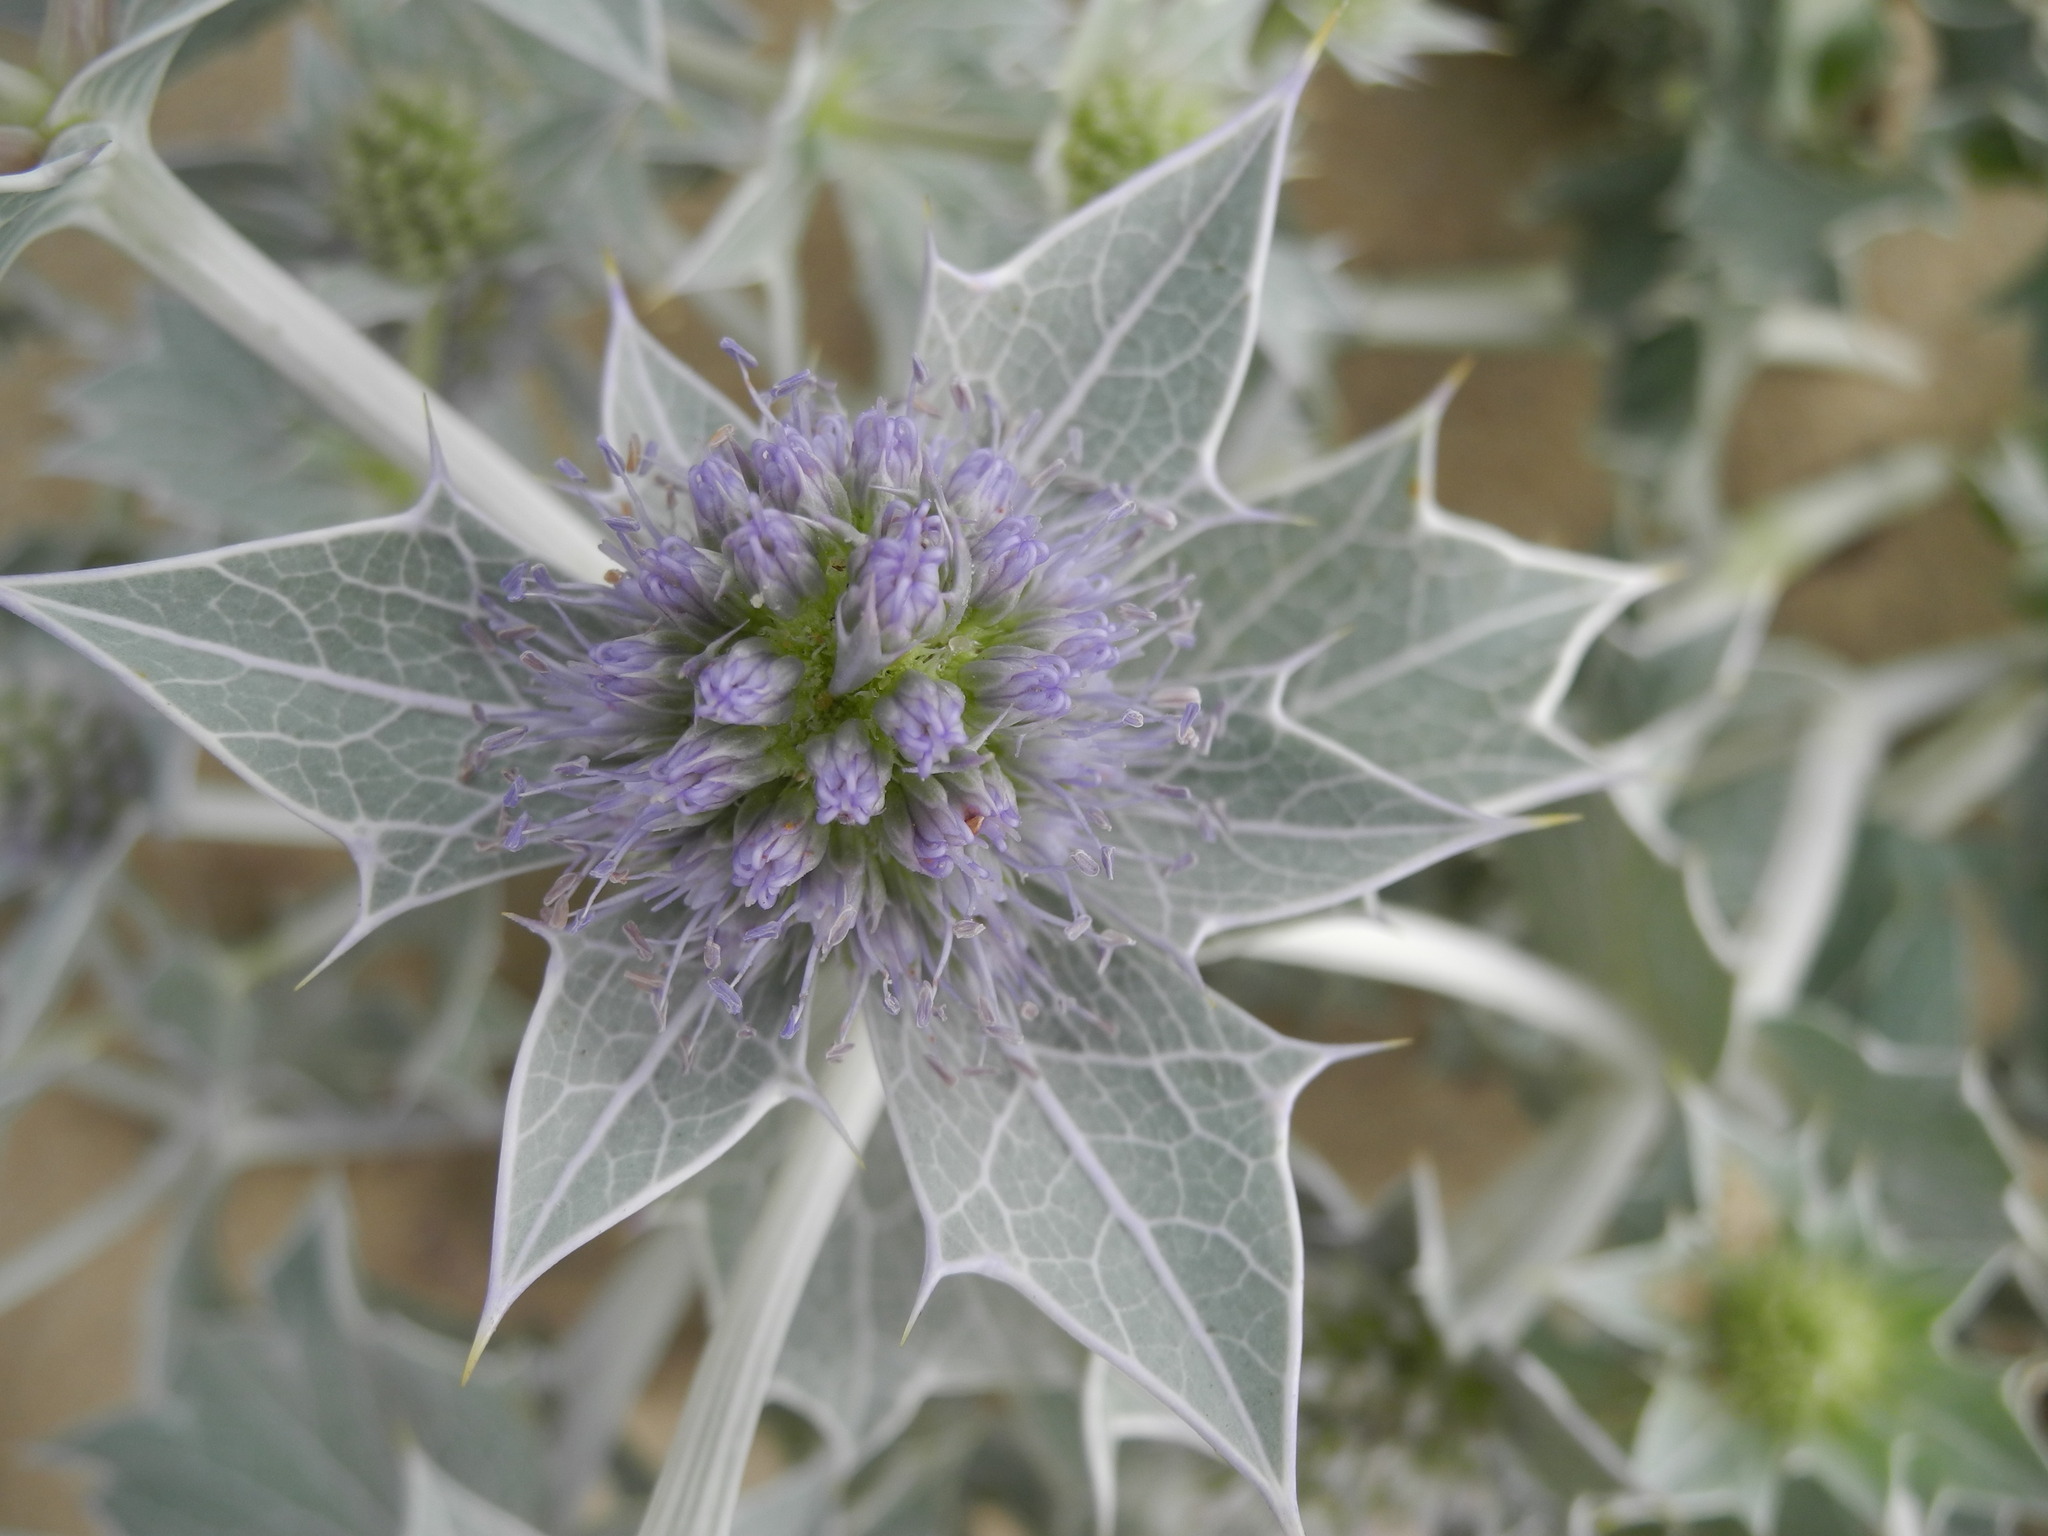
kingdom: Plantae
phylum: Tracheophyta
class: Magnoliopsida
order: Apiales
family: Apiaceae
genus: Eryngium
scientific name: Eryngium maritimum
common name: Sea-holly
